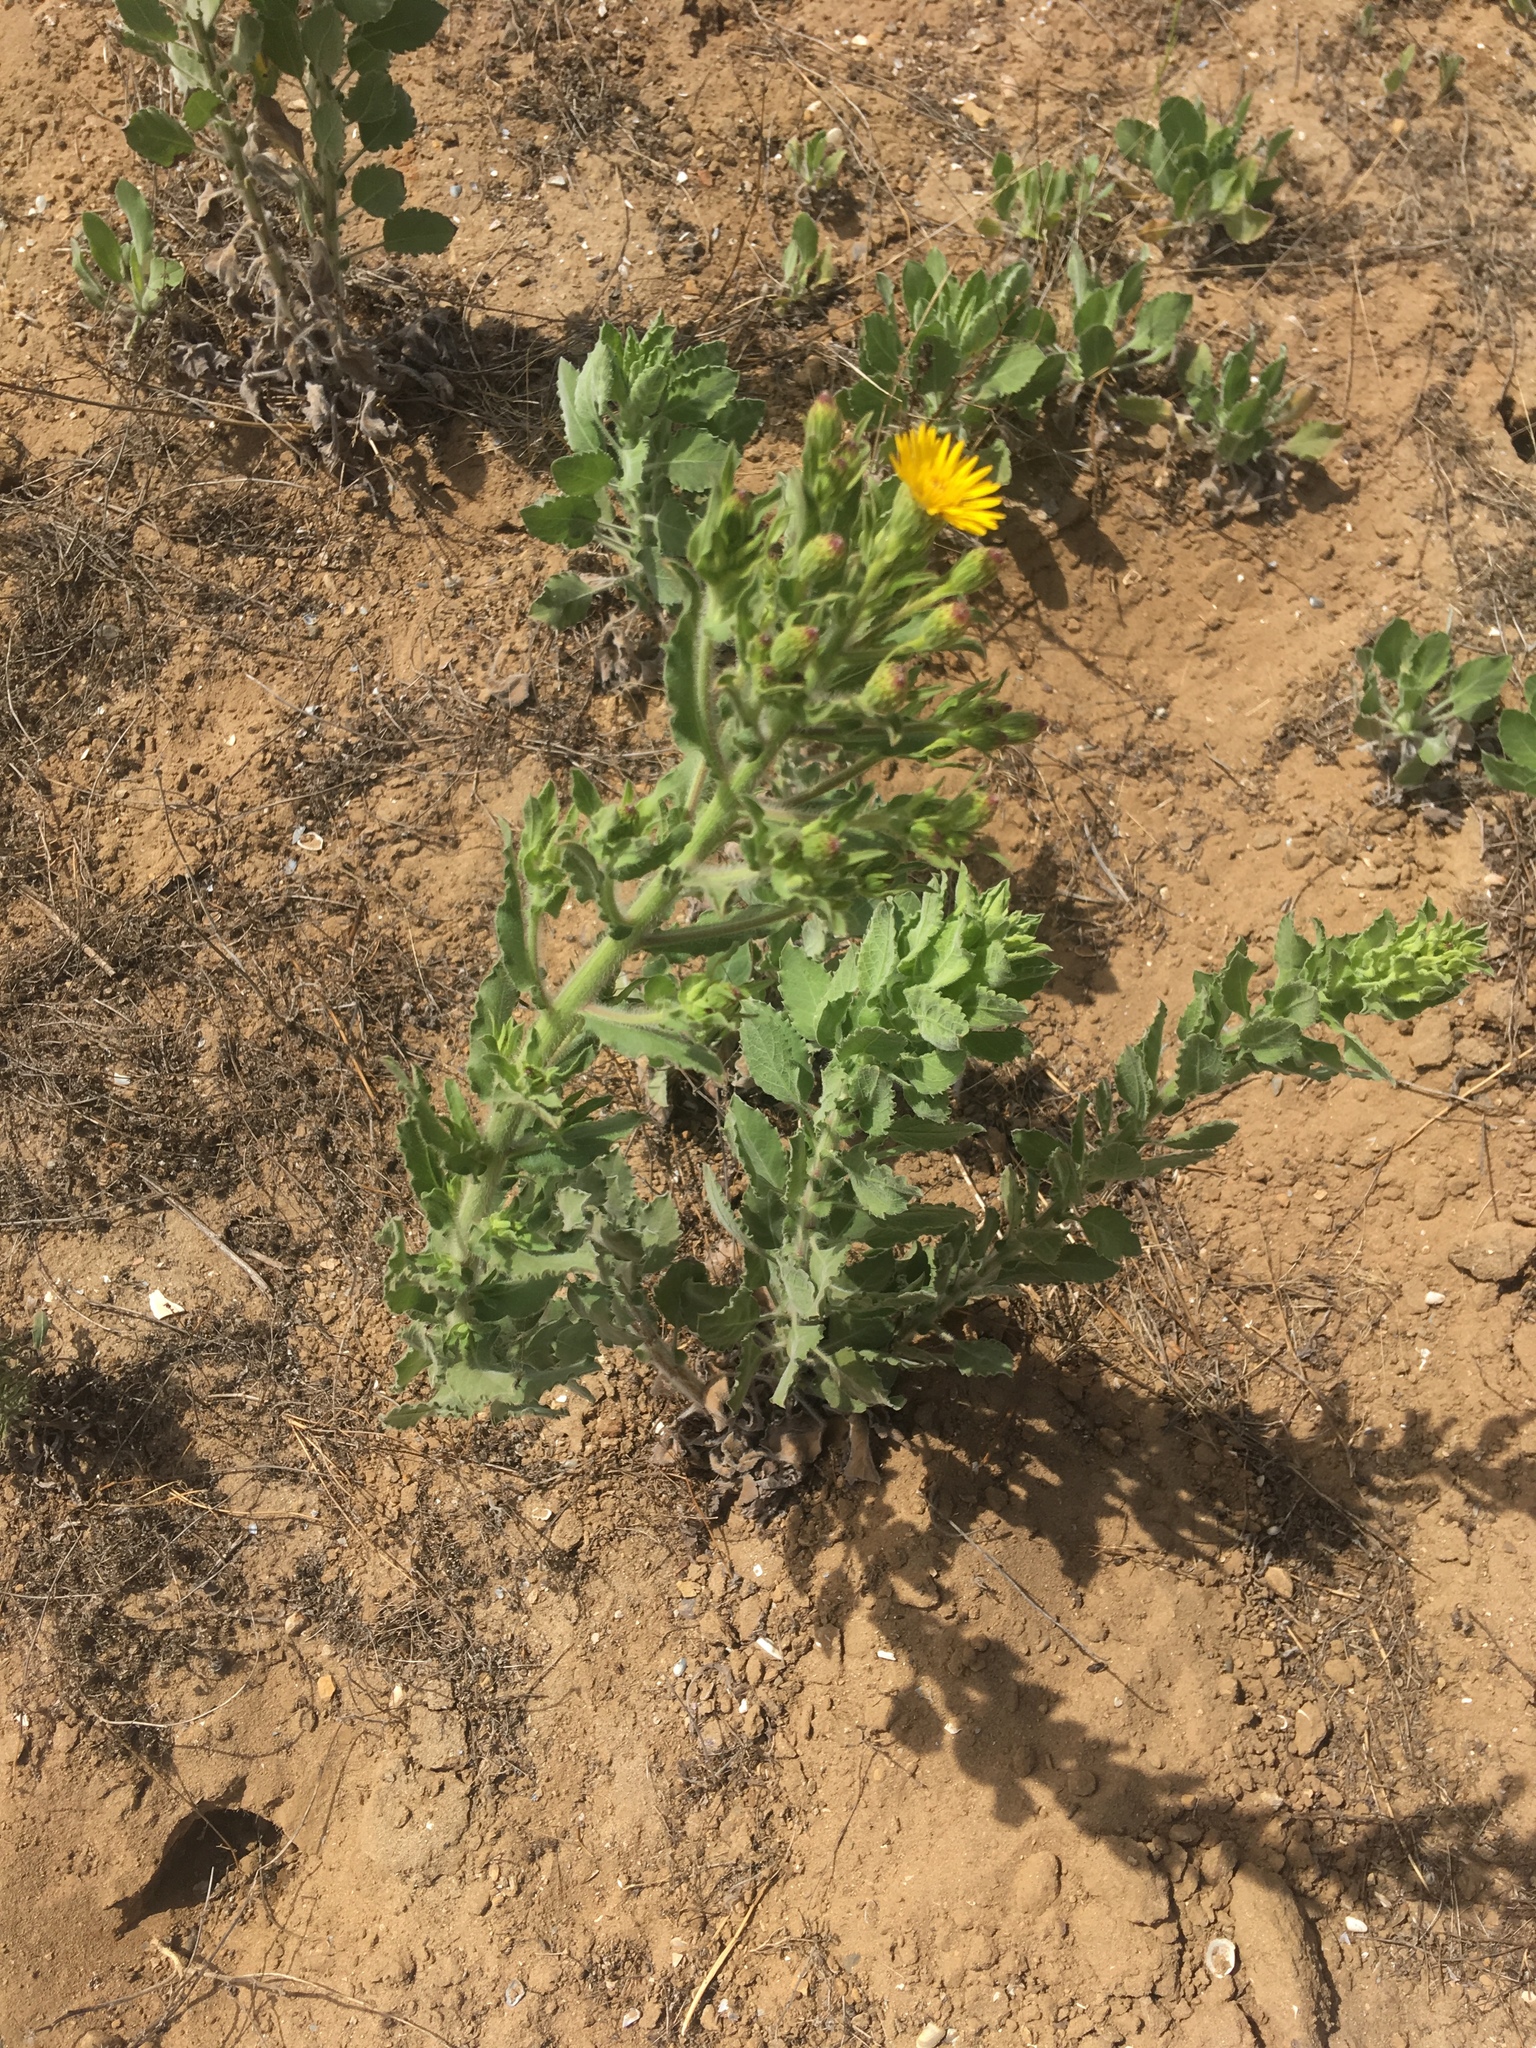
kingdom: Plantae
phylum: Tracheophyta
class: Magnoliopsida
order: Asterales
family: Asteraceae
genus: Heterotheca
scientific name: Heterotheca grandiflora
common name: Telegraphweed
